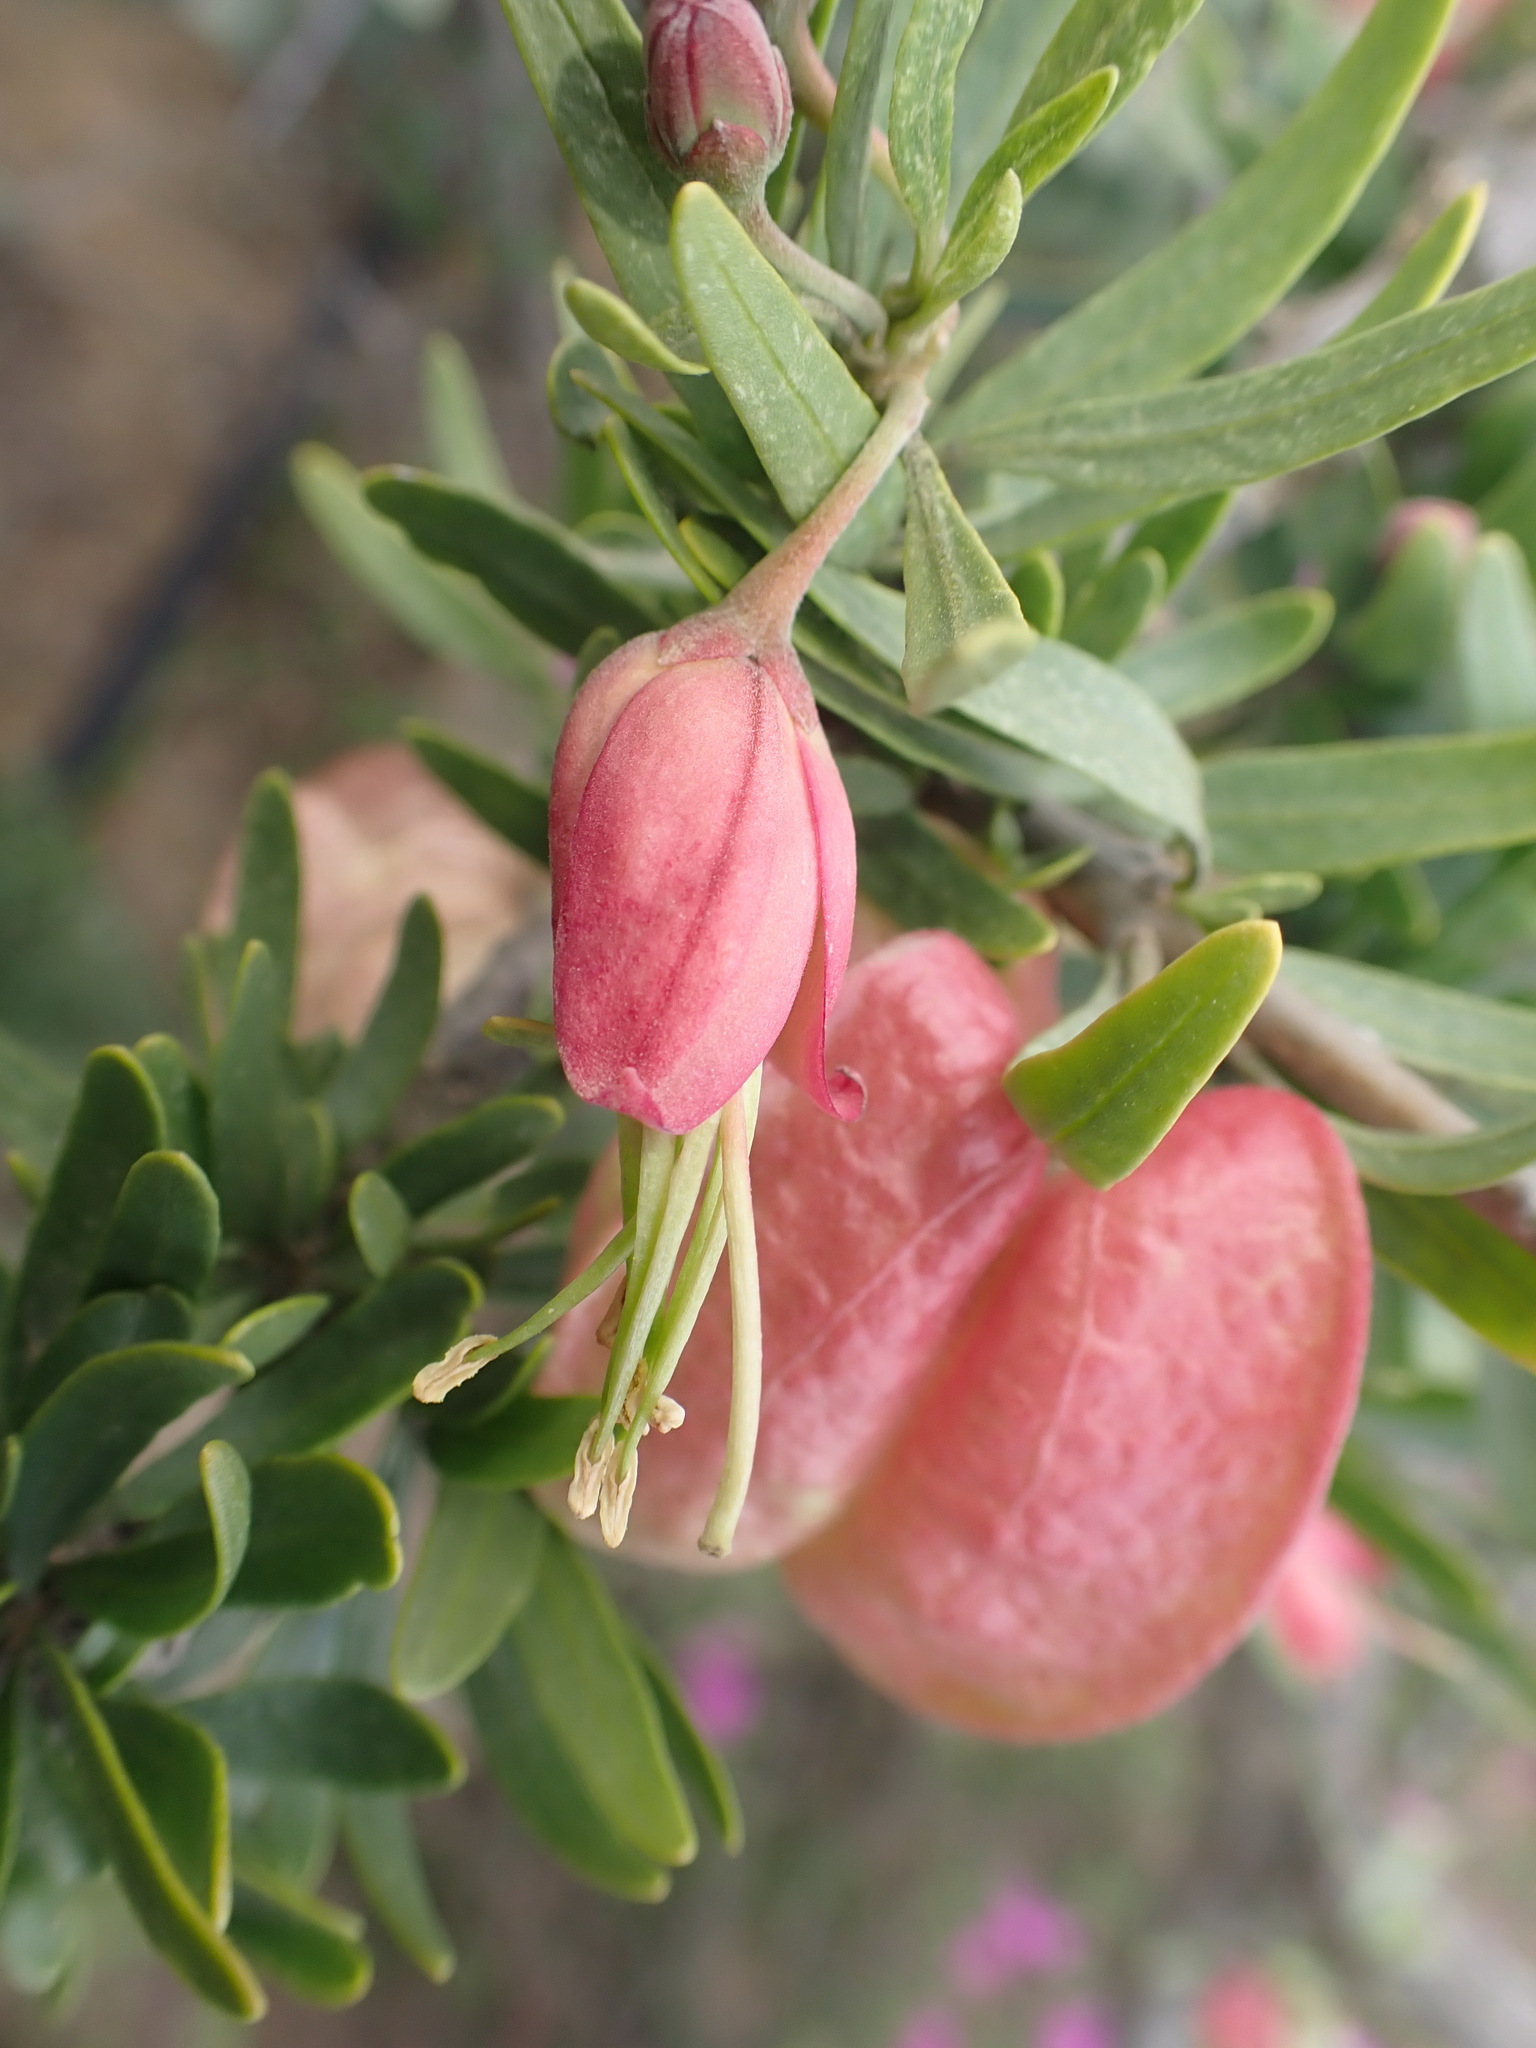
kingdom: Plantae
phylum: Tracheophyta
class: Magnoliopsida
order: Sapindales
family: Meliaceae
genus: Nymania
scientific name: Nymania capensis
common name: Chinese lantern tree
